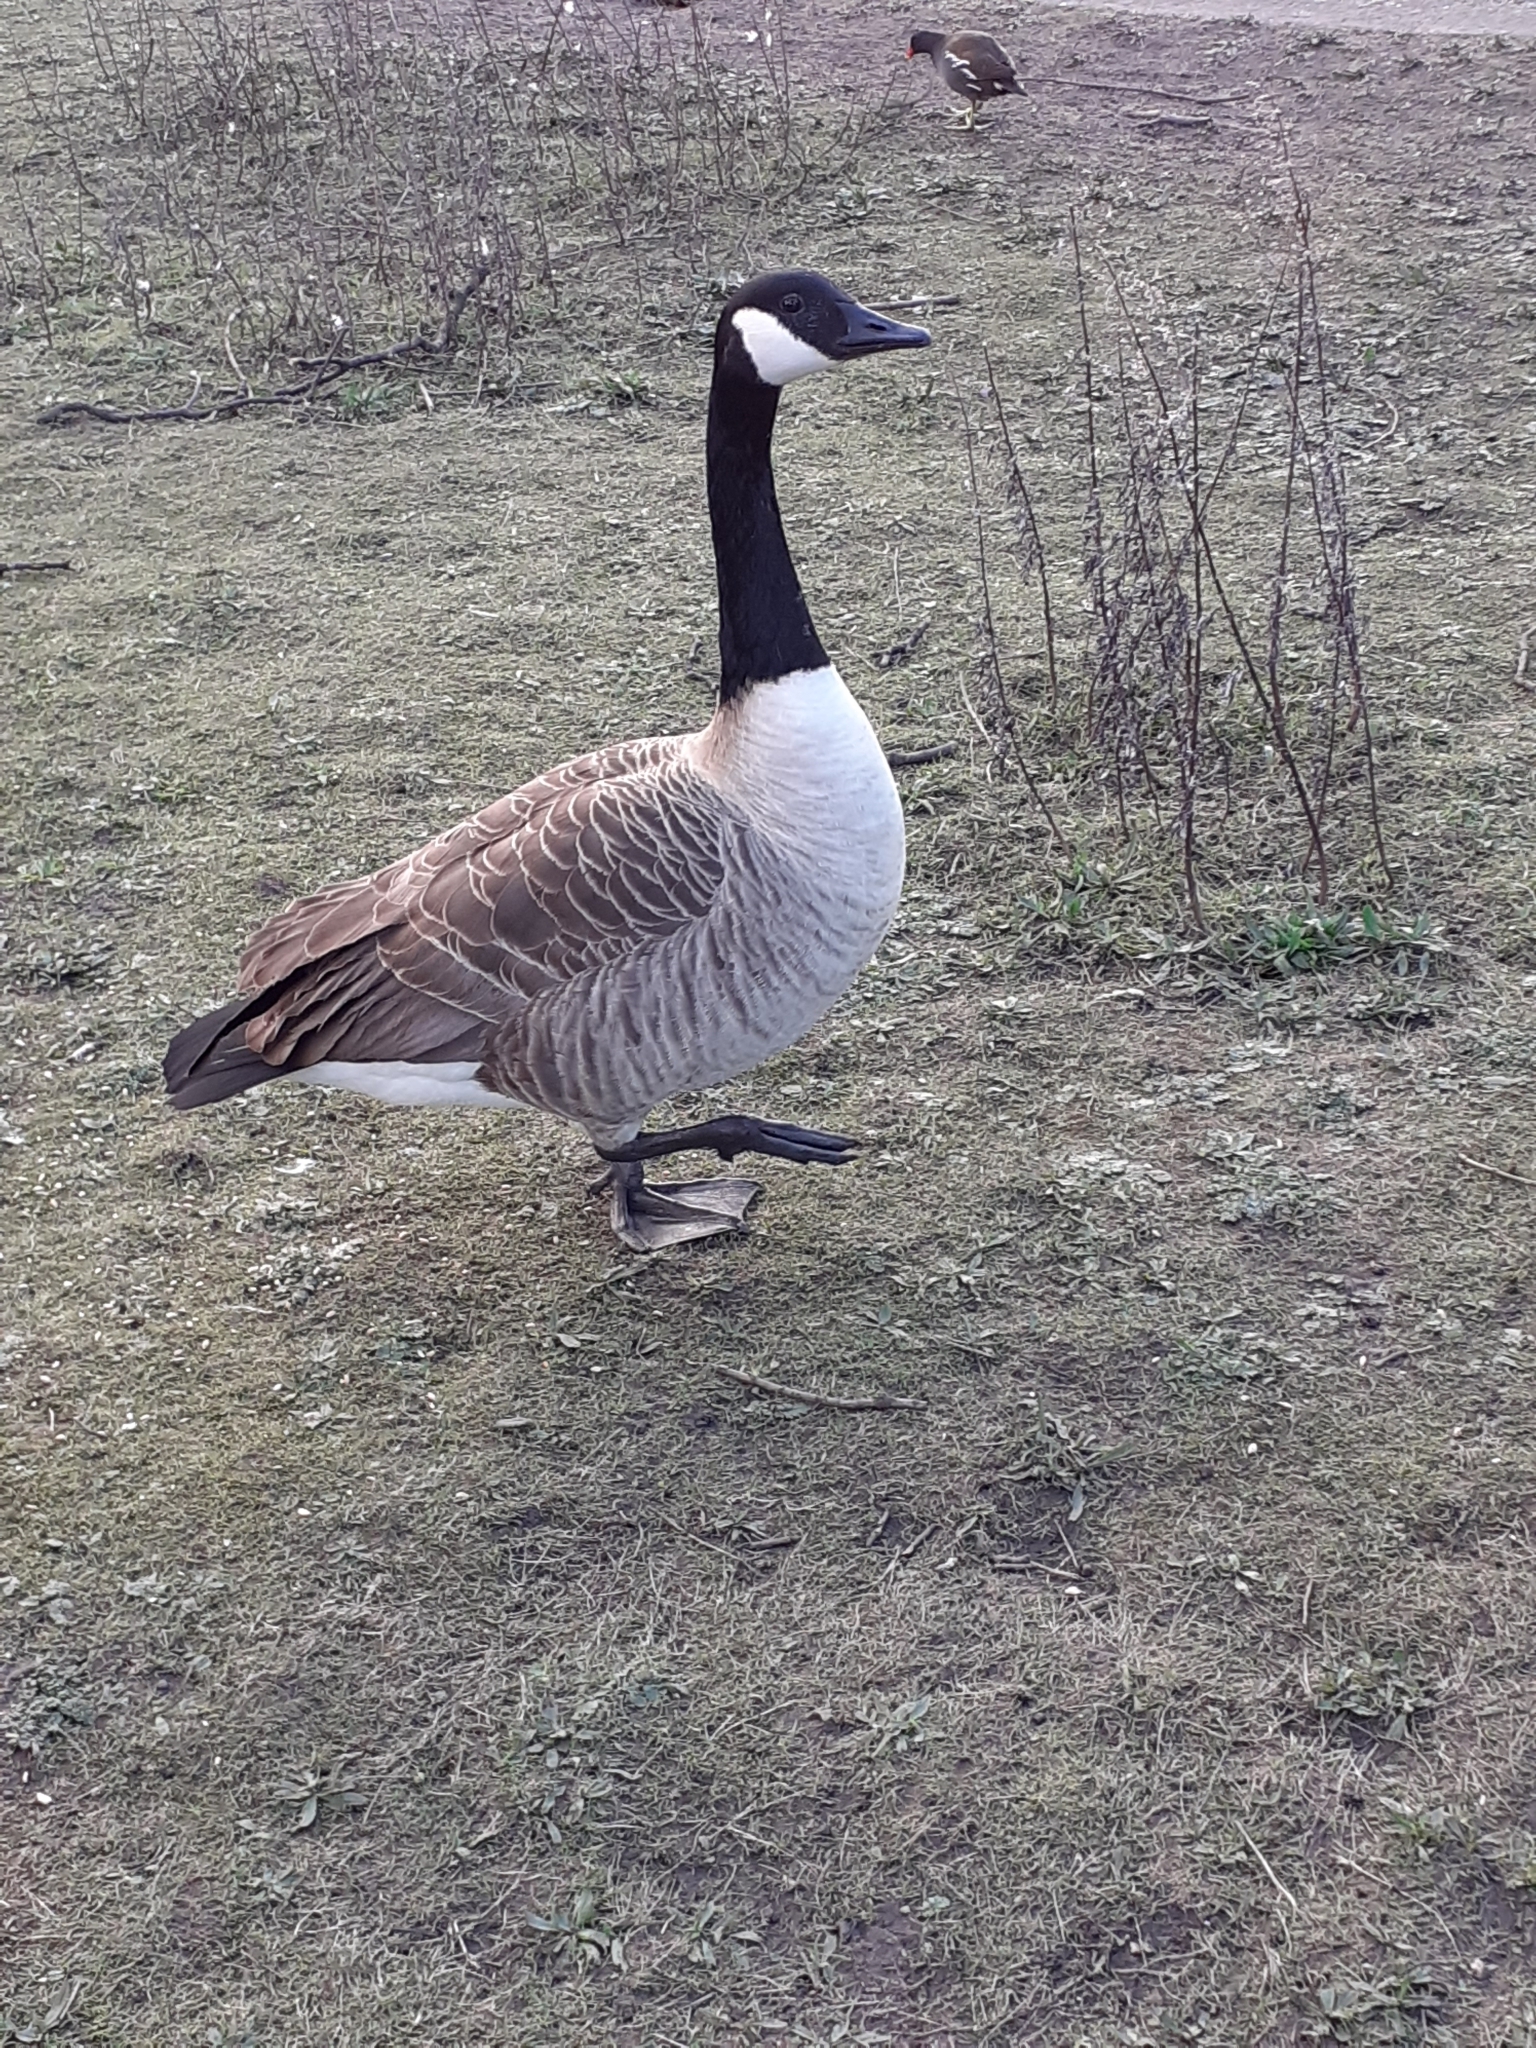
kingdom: Animalia
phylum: Chordata
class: Aves
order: Anseriformes
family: Anatidae
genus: Branta
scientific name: Branta canadensis
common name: Canada goose
